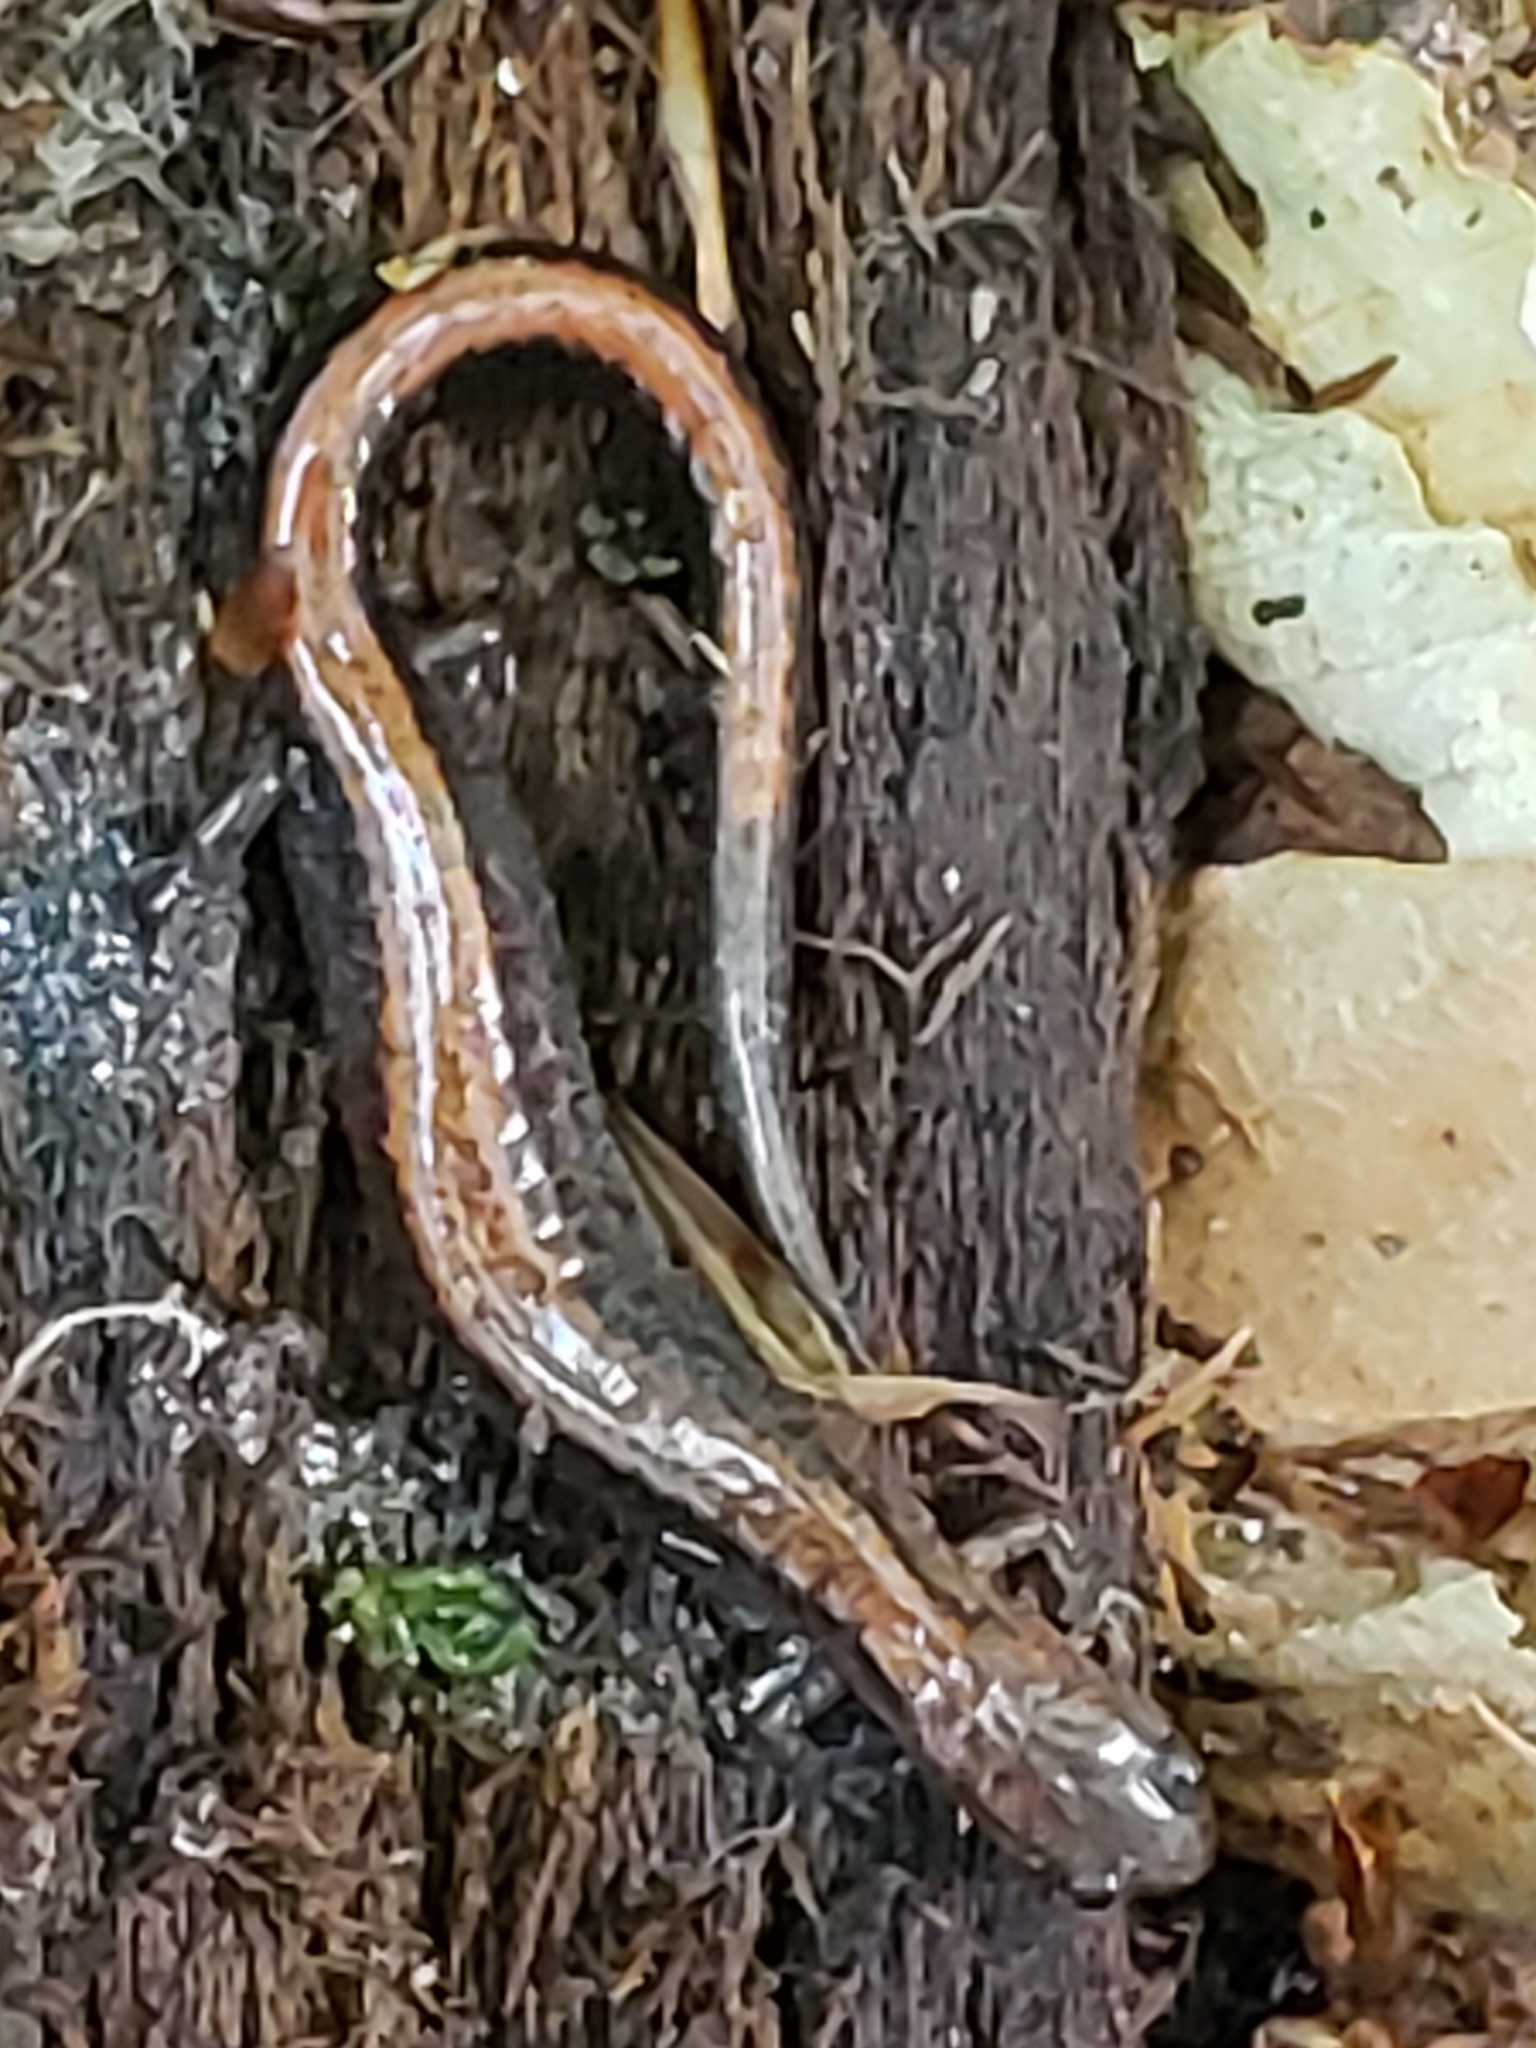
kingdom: Animalia
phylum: Chordata
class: Amphibia
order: Caudata
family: Plethodontidae
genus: Plethodon
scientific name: Plethodon cinereus
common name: Redback salamander
